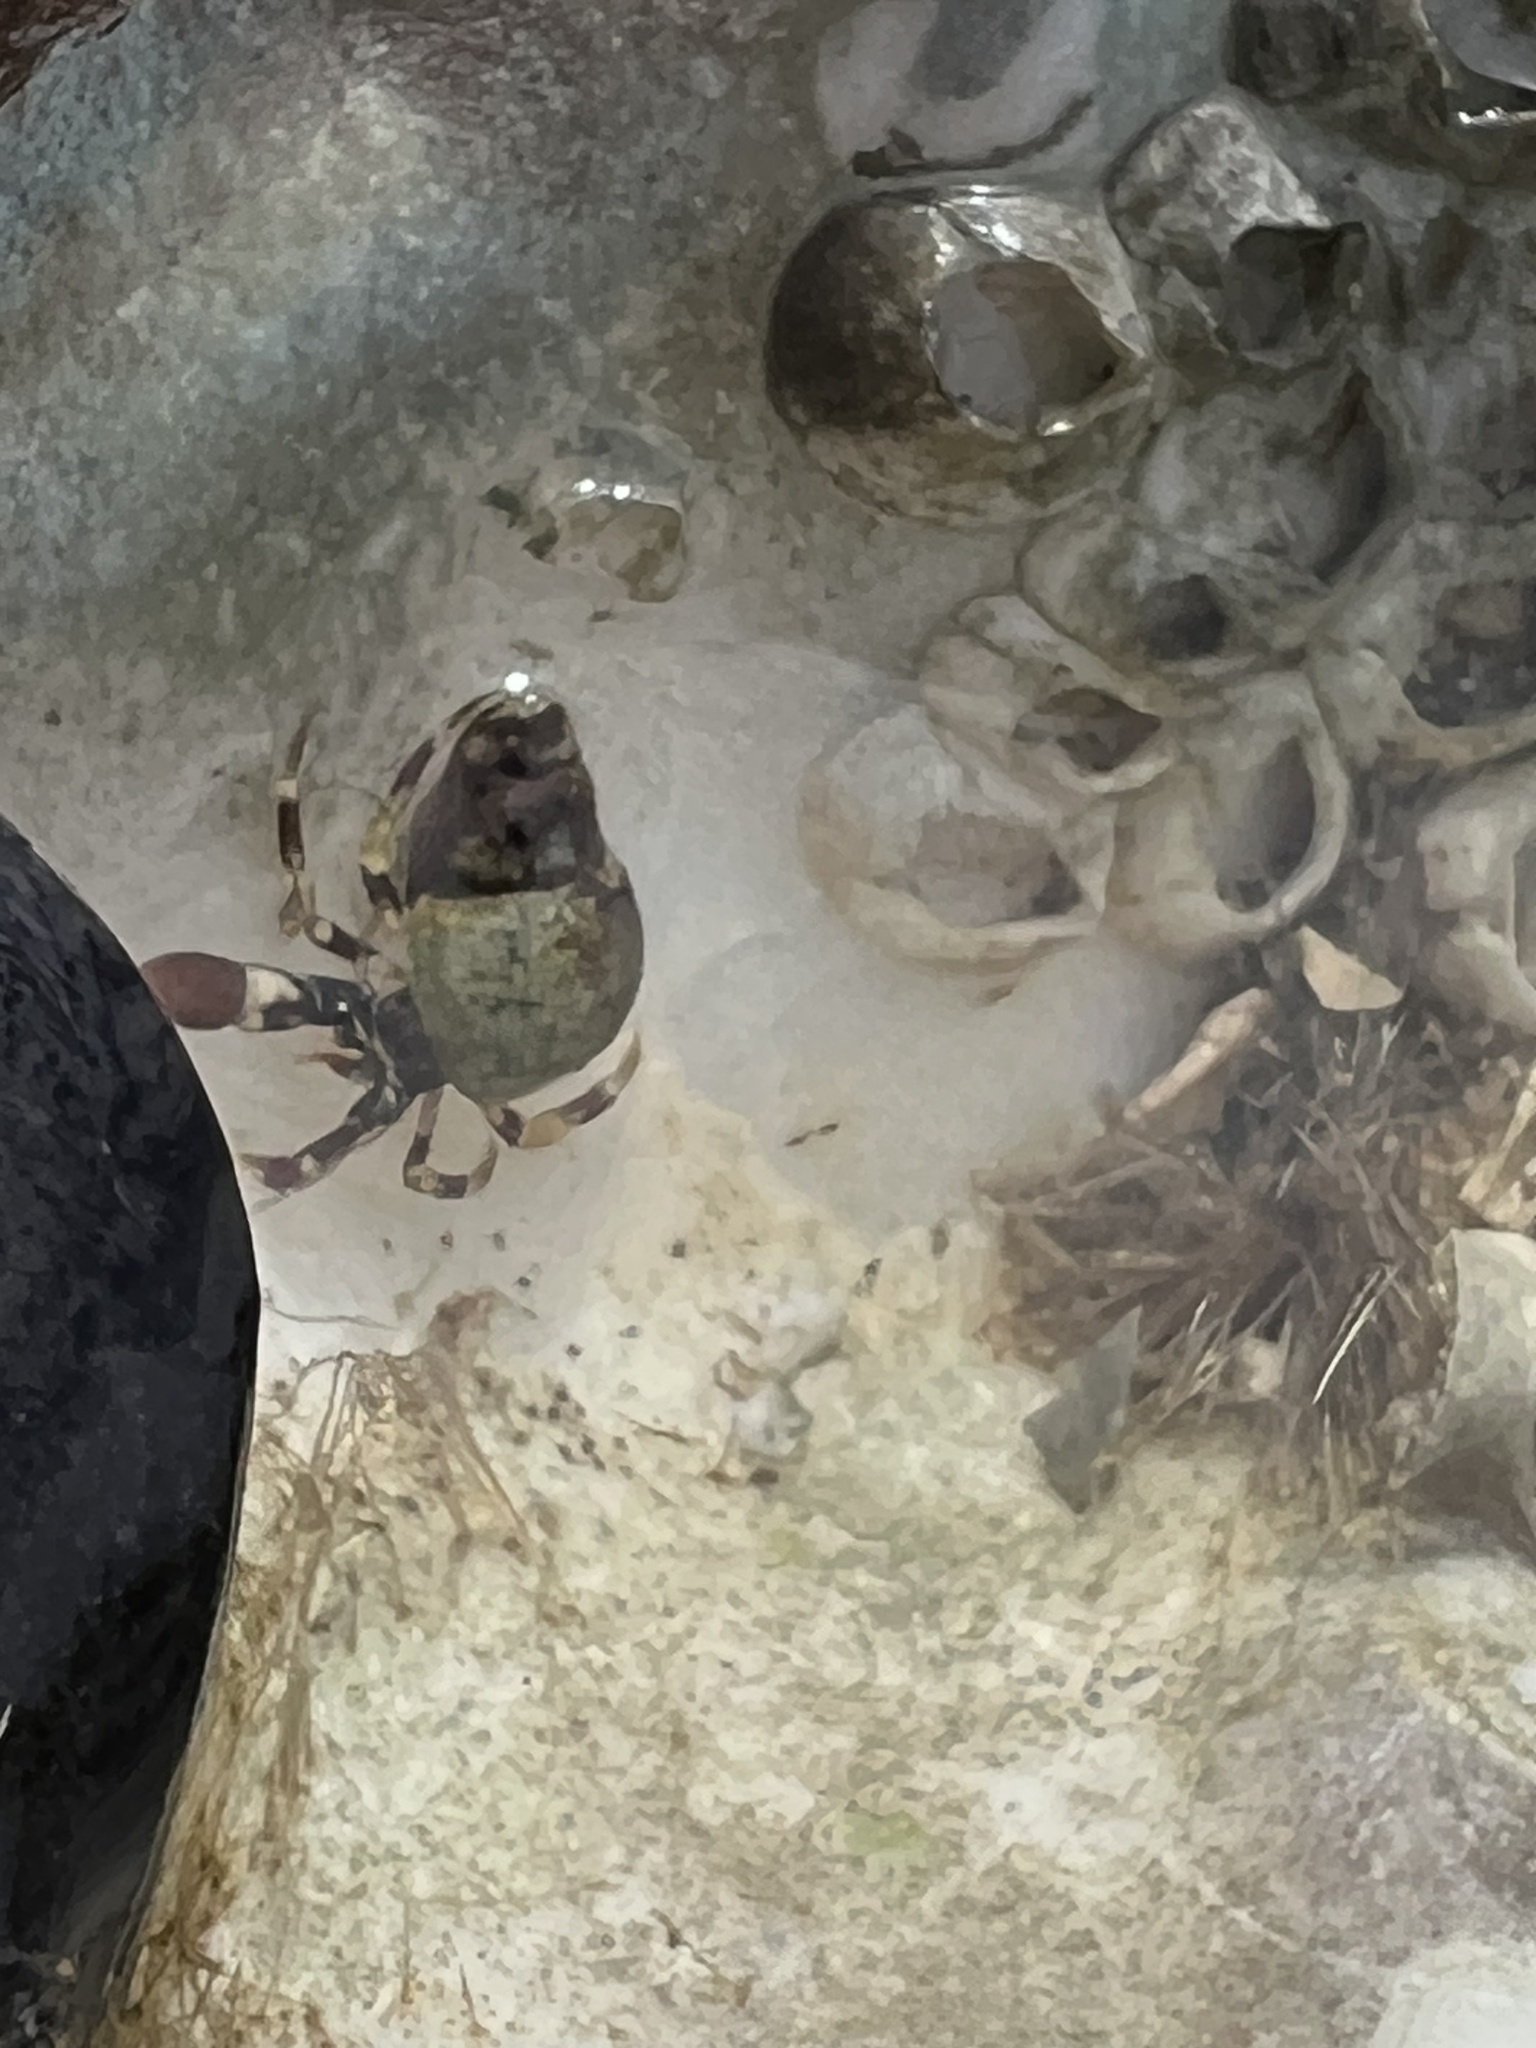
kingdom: Animalia
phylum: Arthropoda
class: Malacostraca
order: Decapoda
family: Paguridae
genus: Pagurus
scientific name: Pagurus hirsutiusculus
